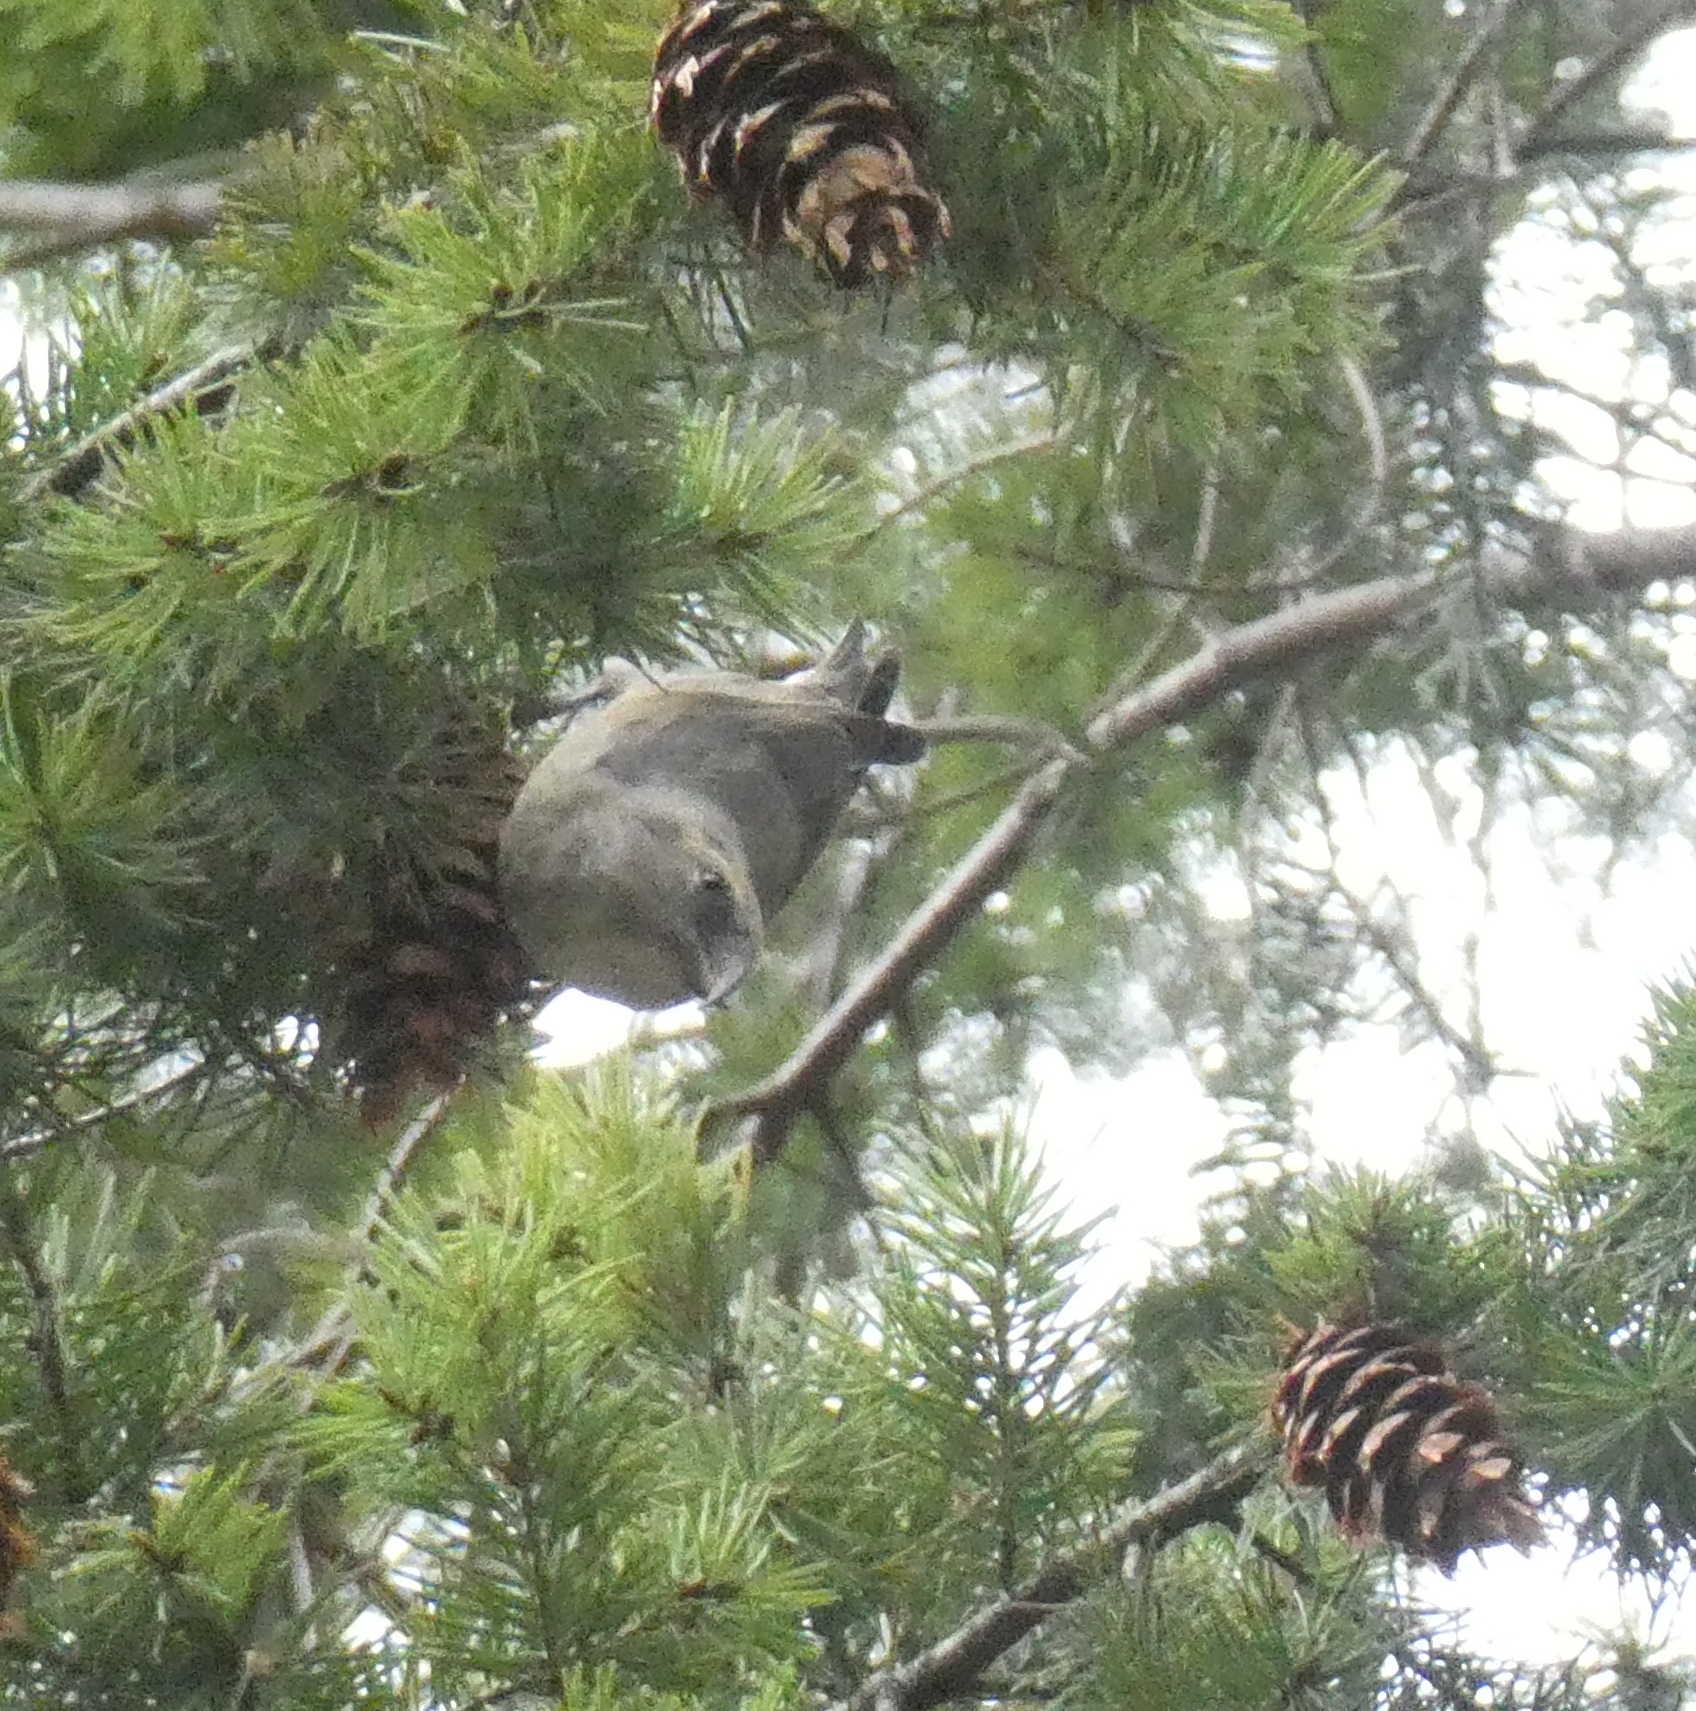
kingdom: Animalia
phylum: Chordata
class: Aves
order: Passeriformes
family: Fringillidae
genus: Loxia
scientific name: Loxia curvirostra
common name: Red crossbill
